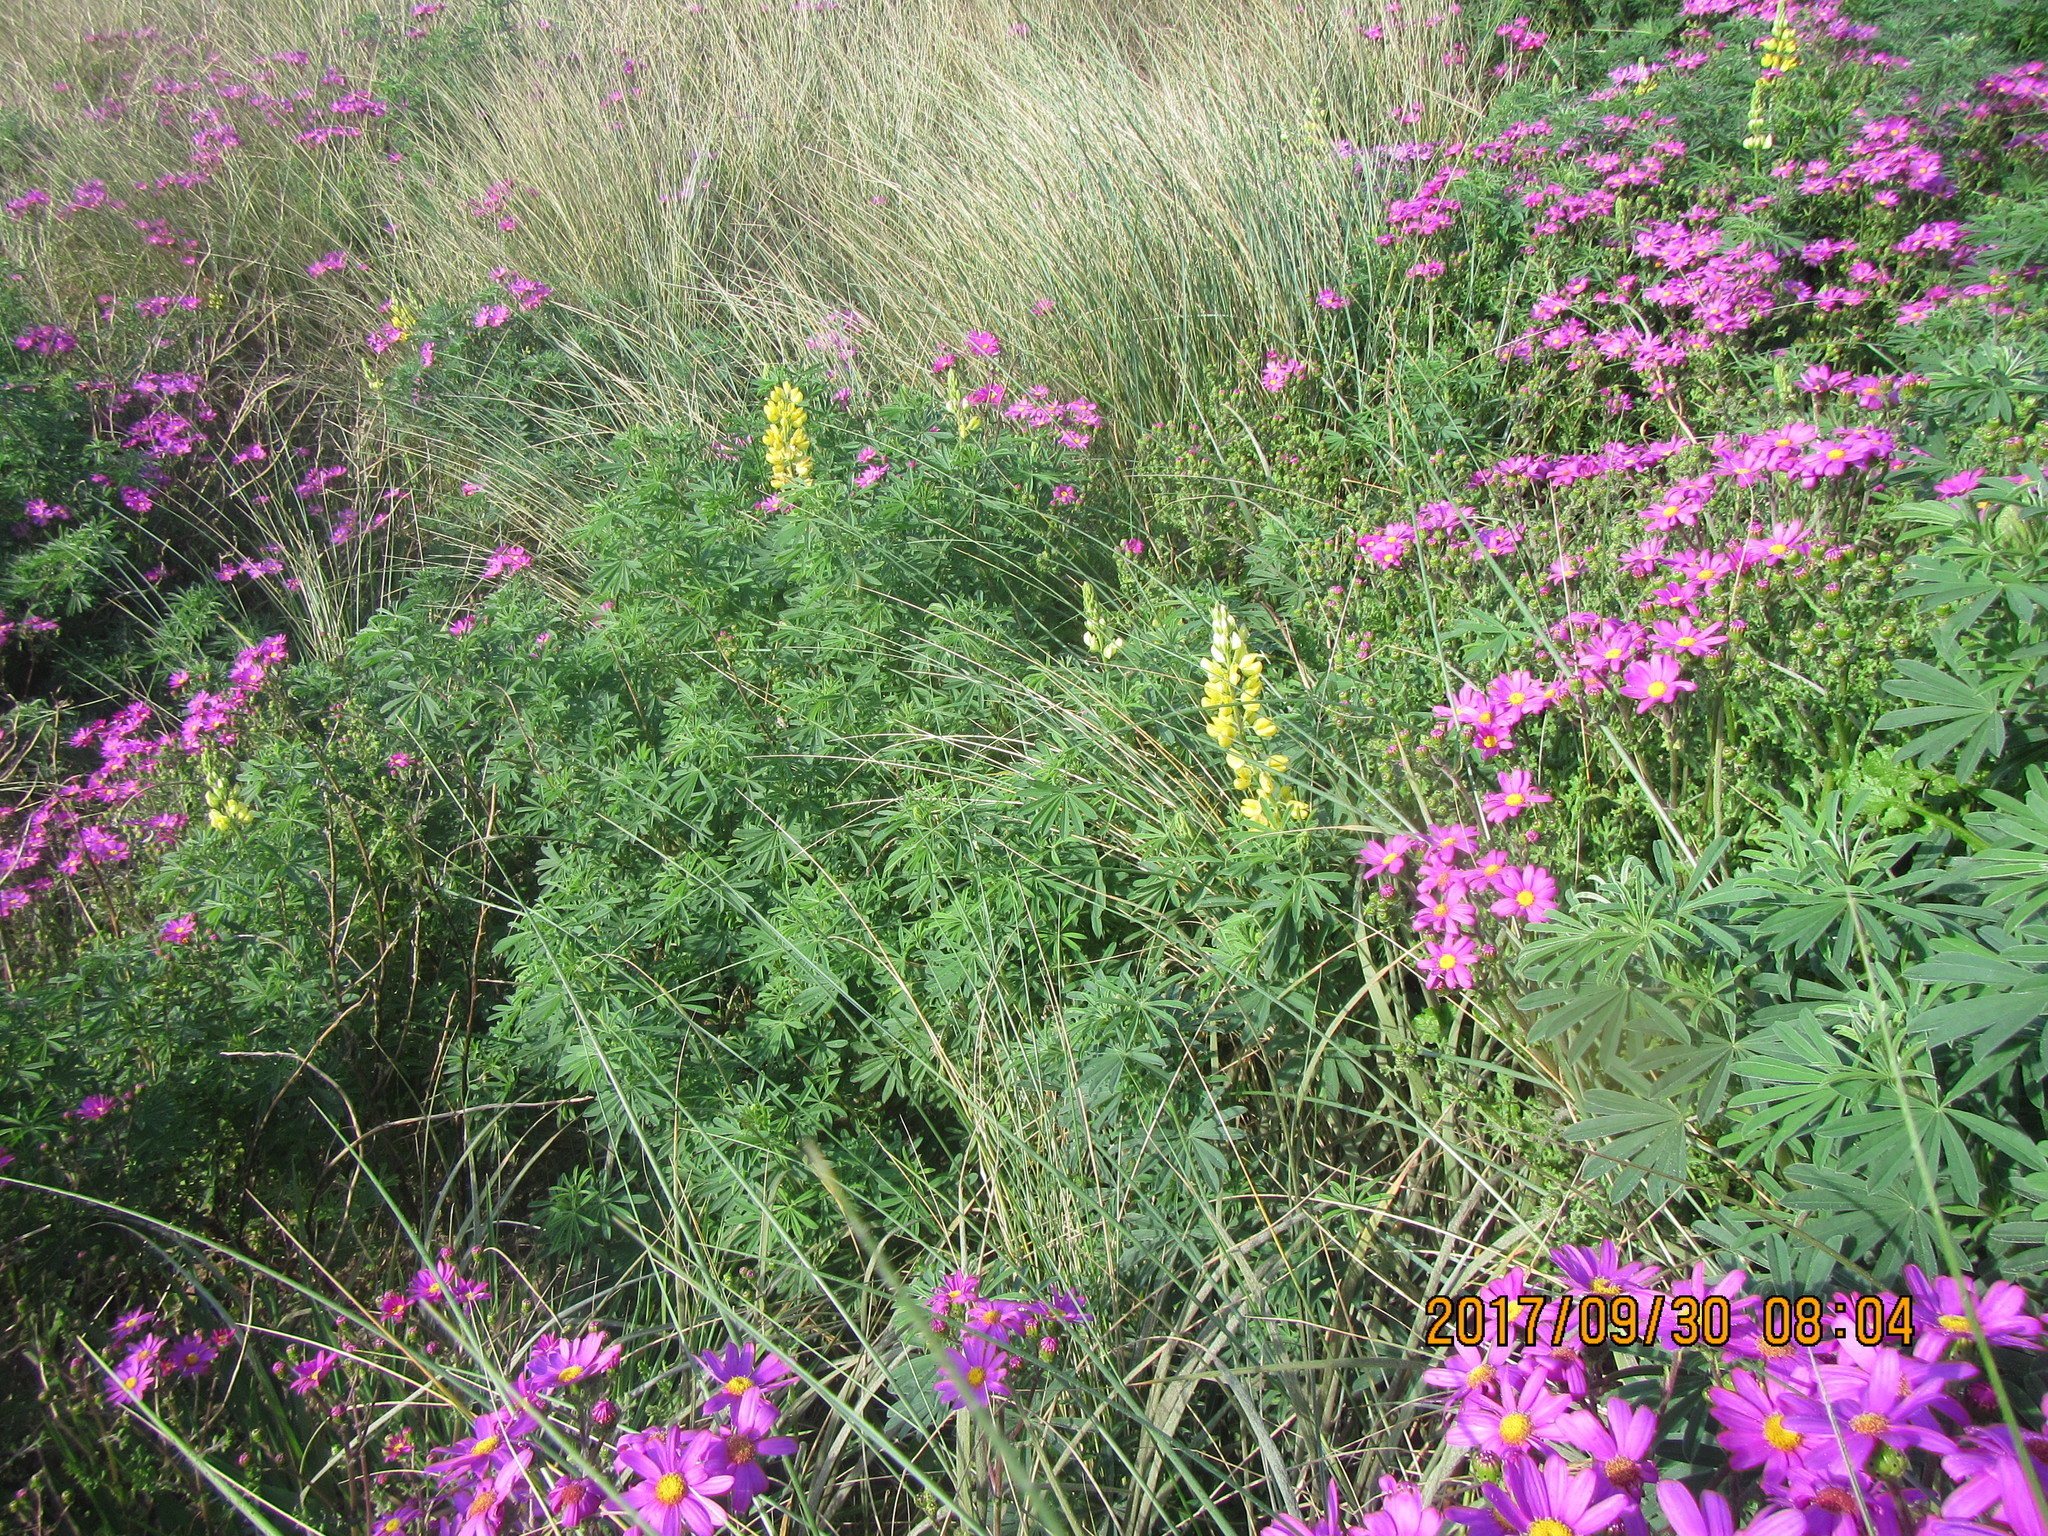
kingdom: Plantae
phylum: Tracheophyta
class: Magnoliopsida
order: Fabales
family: Fabaceae
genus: Lupinus
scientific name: Lupinus arboreus
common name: Yellow bush lupine
